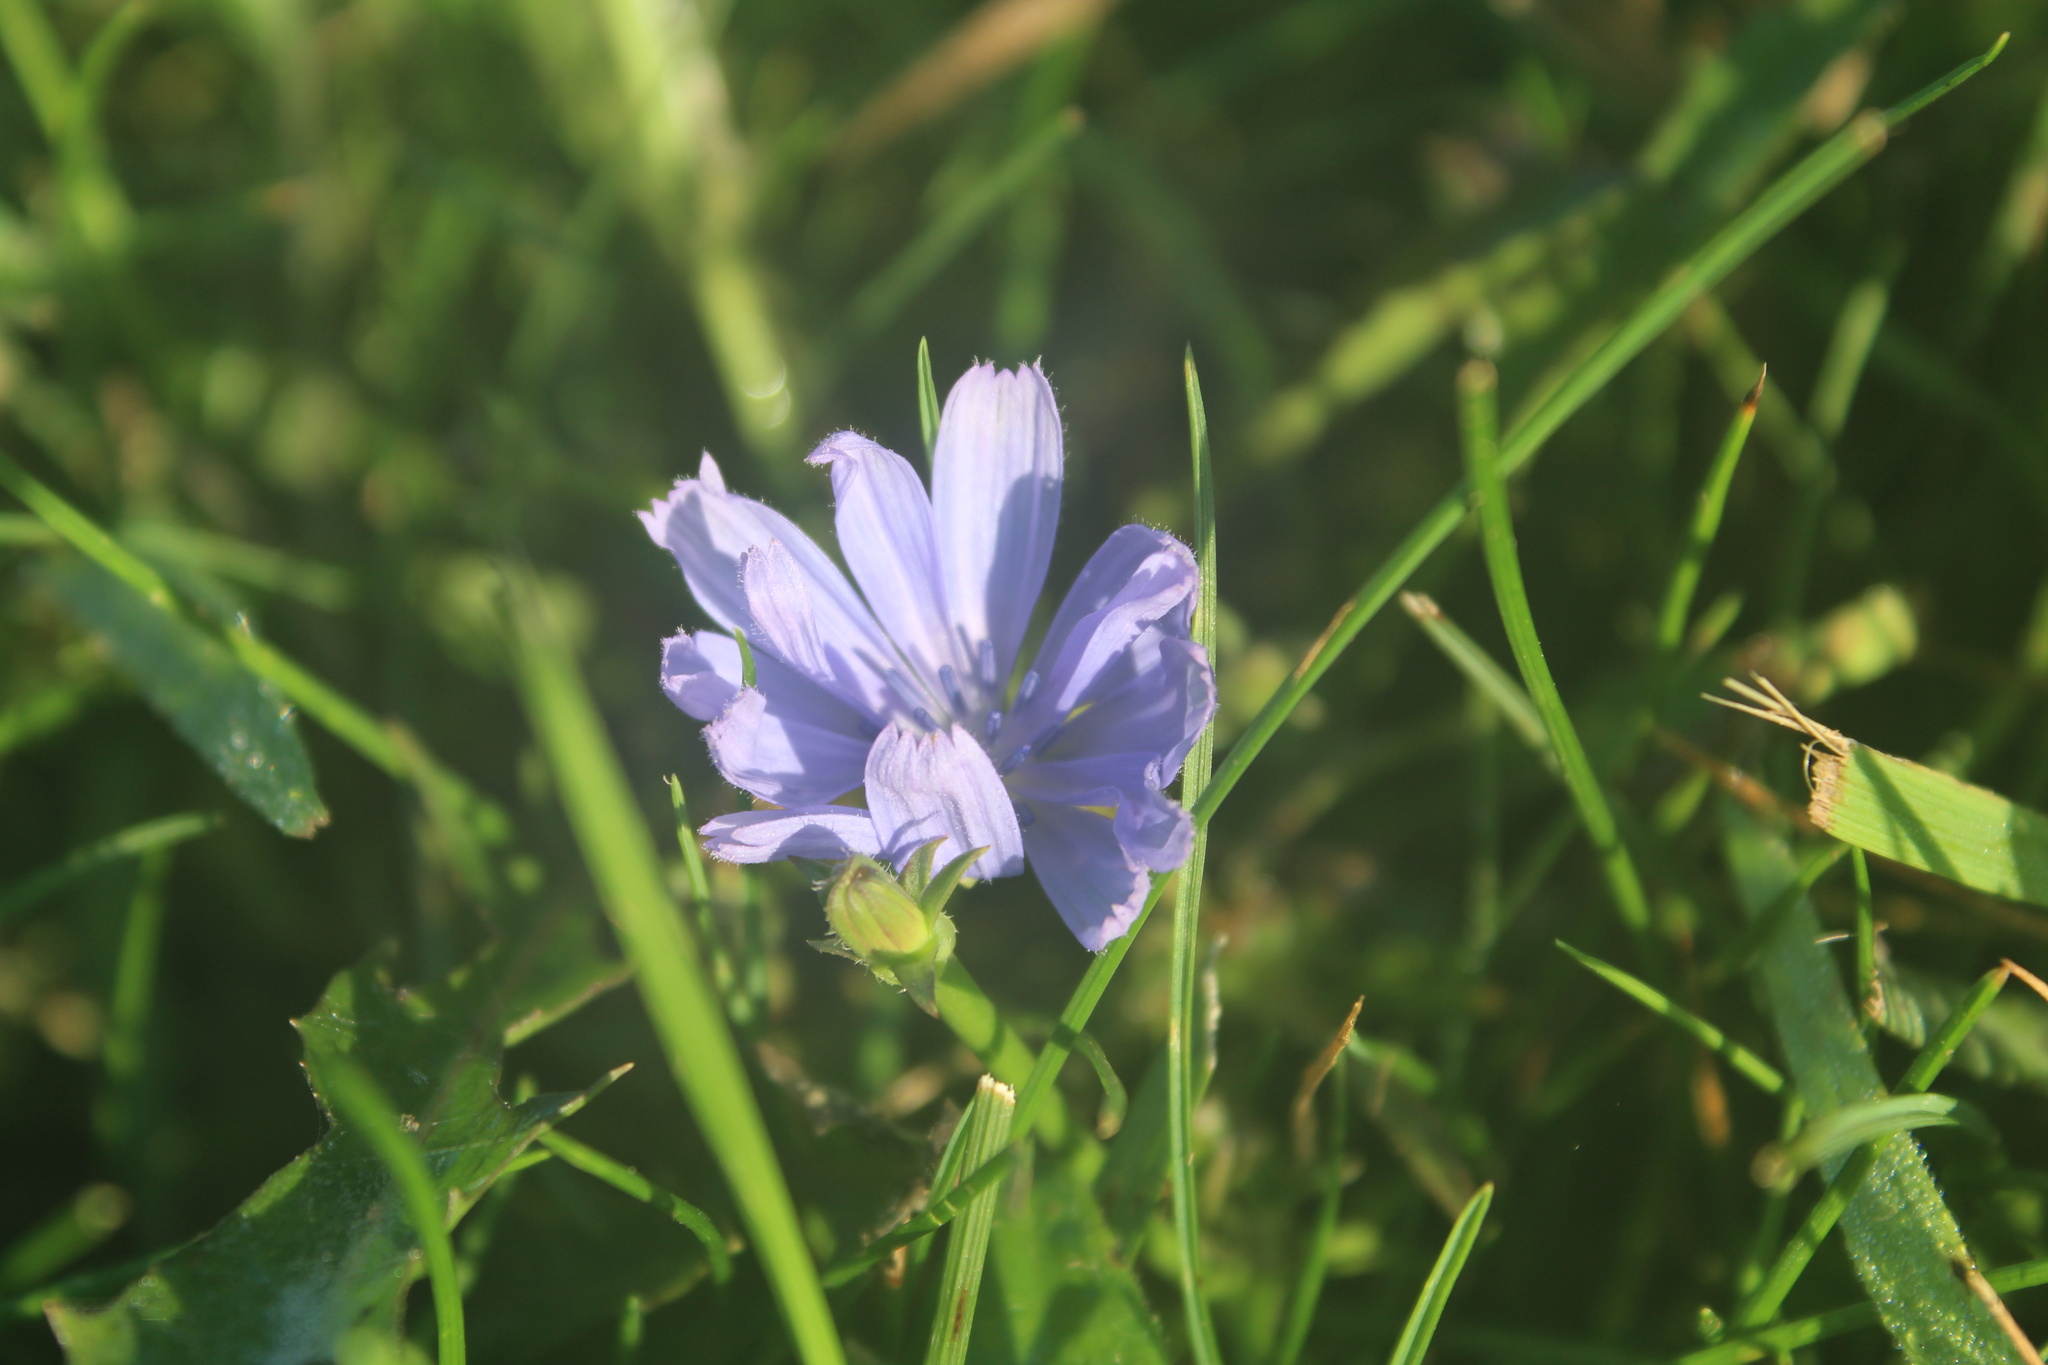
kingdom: Plantae
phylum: Tracheophyta
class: Magnoliopsida
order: Asterales
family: Asteraceae
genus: Cichorium
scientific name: Cichorium intybus
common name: Chicory
